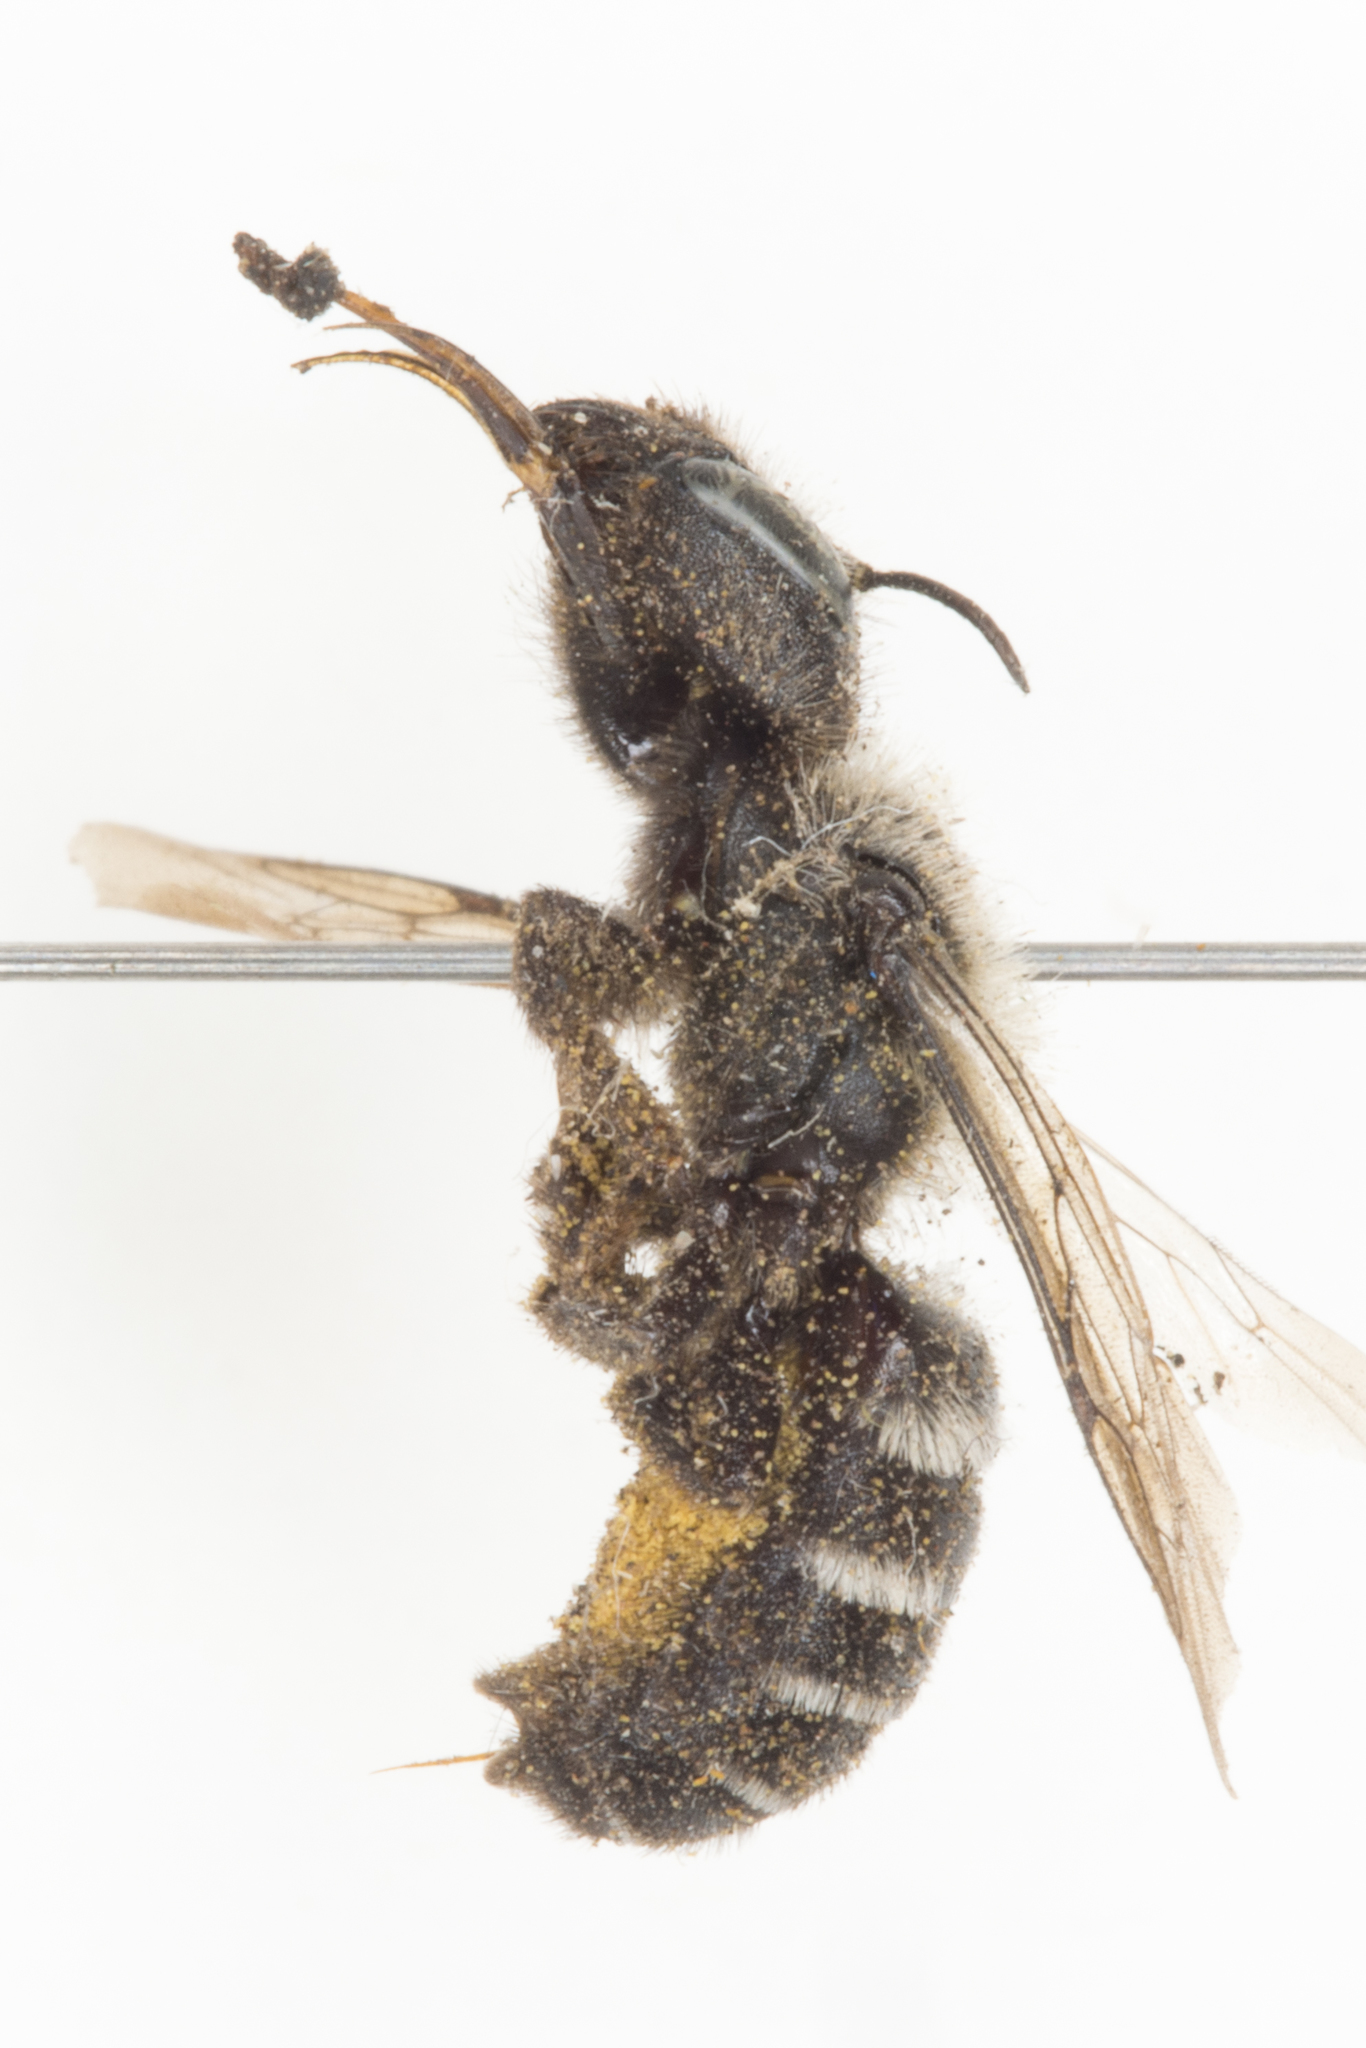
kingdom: Animalia
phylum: Arthropoda
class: Insecta
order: Hymenoptera
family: Megachilidae
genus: Hoplitis
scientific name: Hoplitis albifrons
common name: White-fronted small-mason
